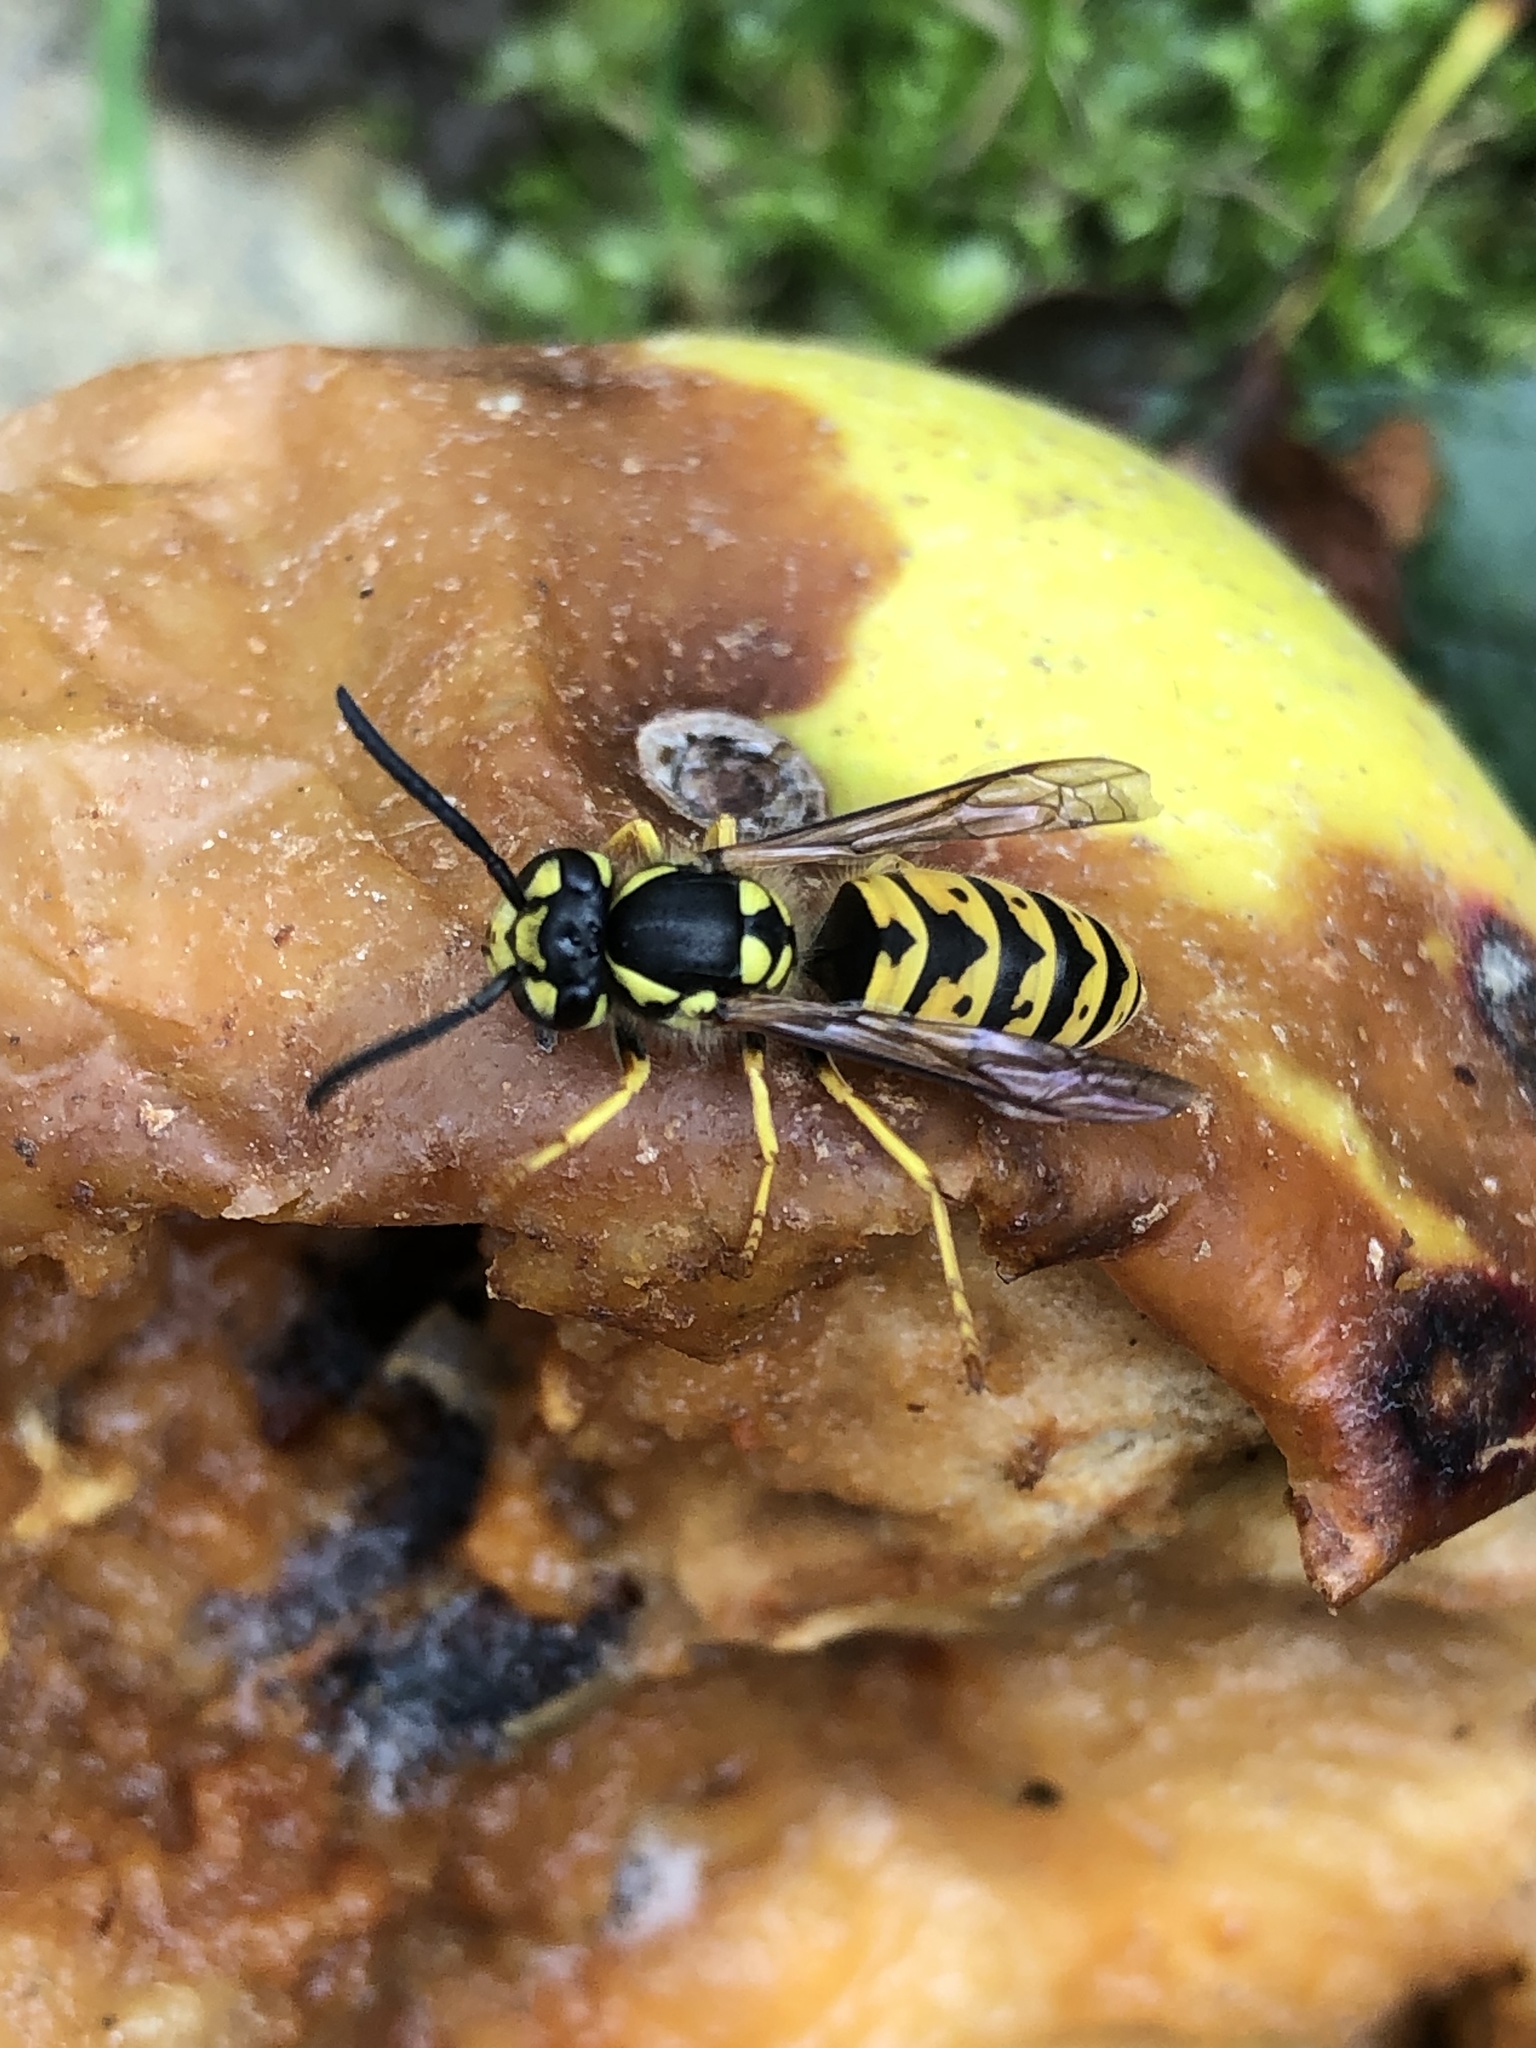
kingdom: Animalia
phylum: Arthropoda
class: Insecta
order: Hymenoptera
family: Vespidae
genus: Vespula
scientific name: Vespula germanica
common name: German wasp
